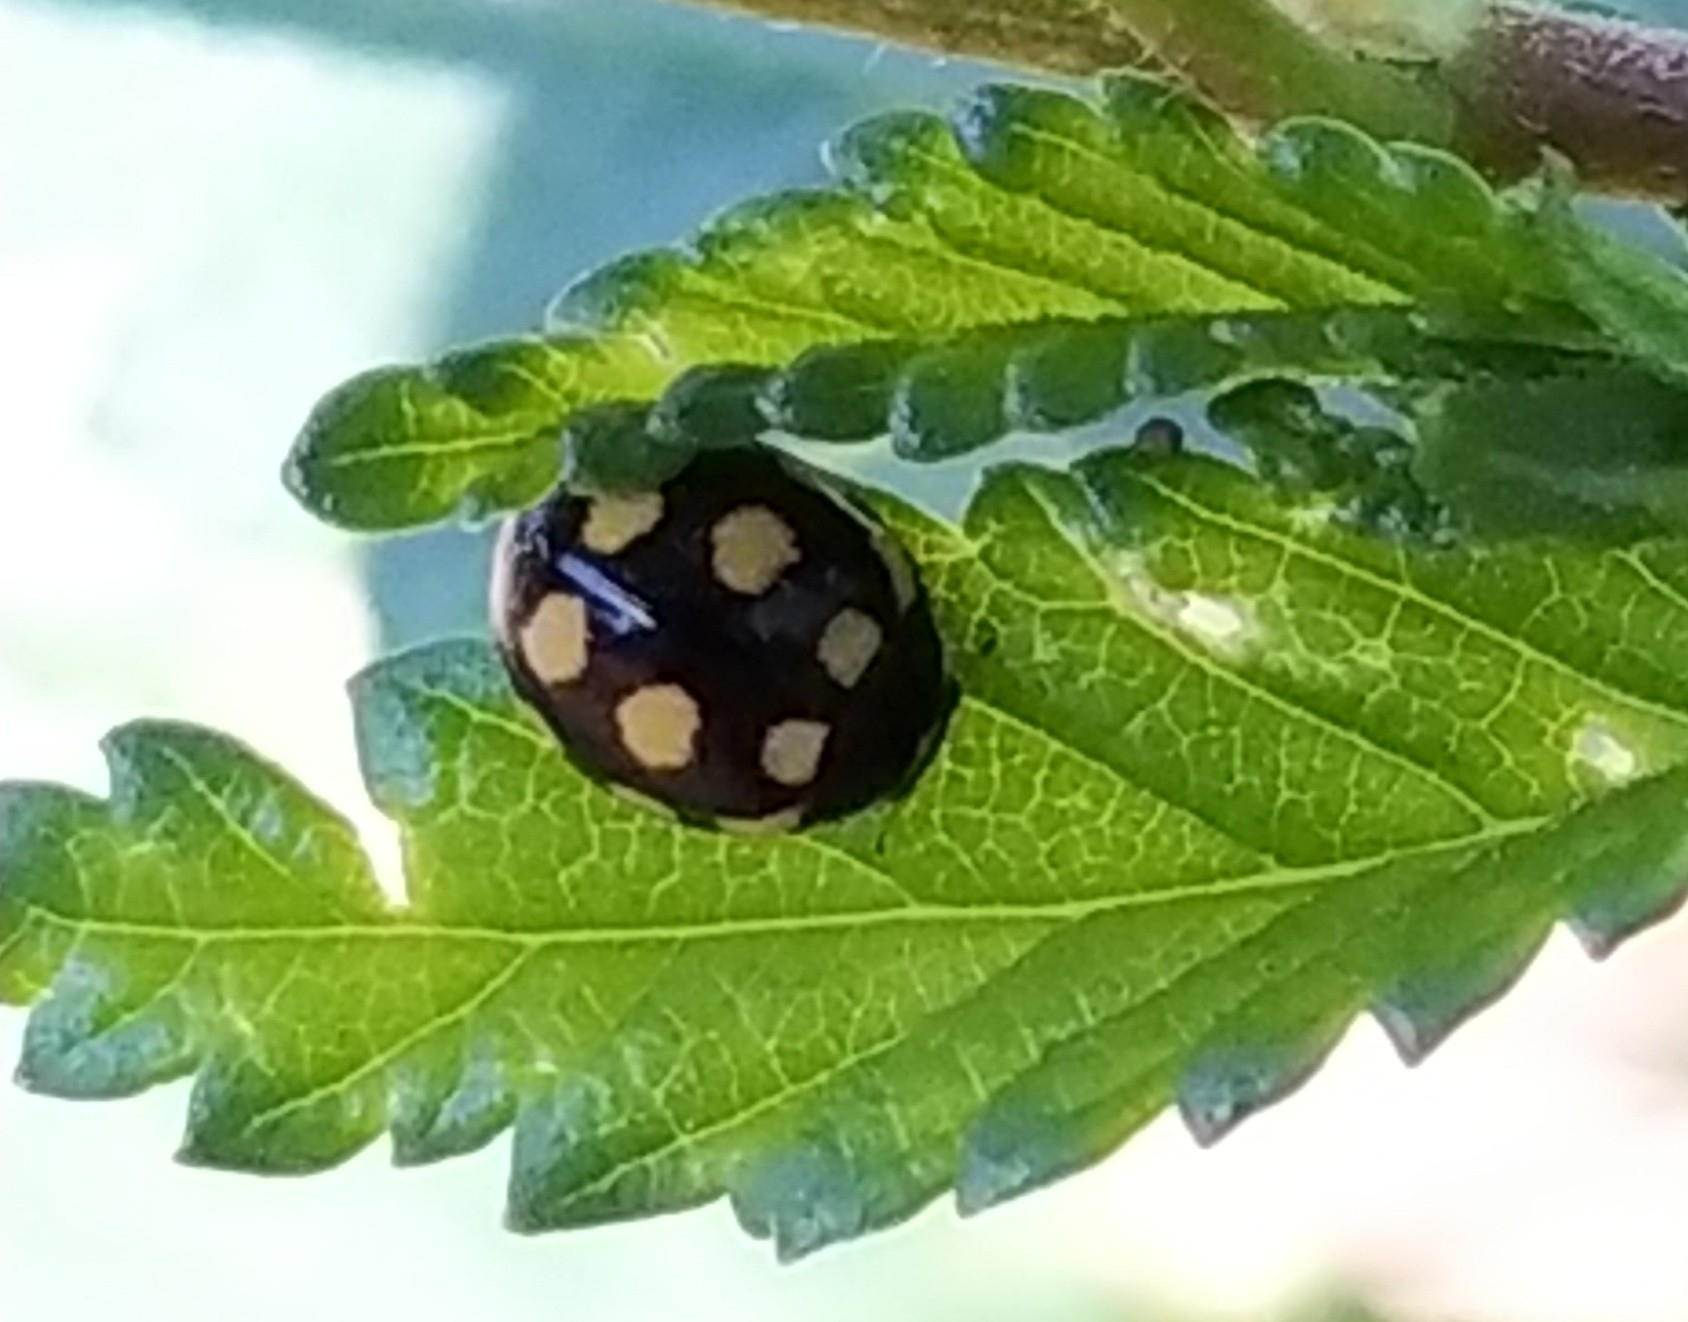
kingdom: Animalia
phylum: Arthropoda
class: Insecta
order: Coleoptera
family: Coccinellidae
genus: Coccinula
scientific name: Coccinula quatuordecimpustulata
